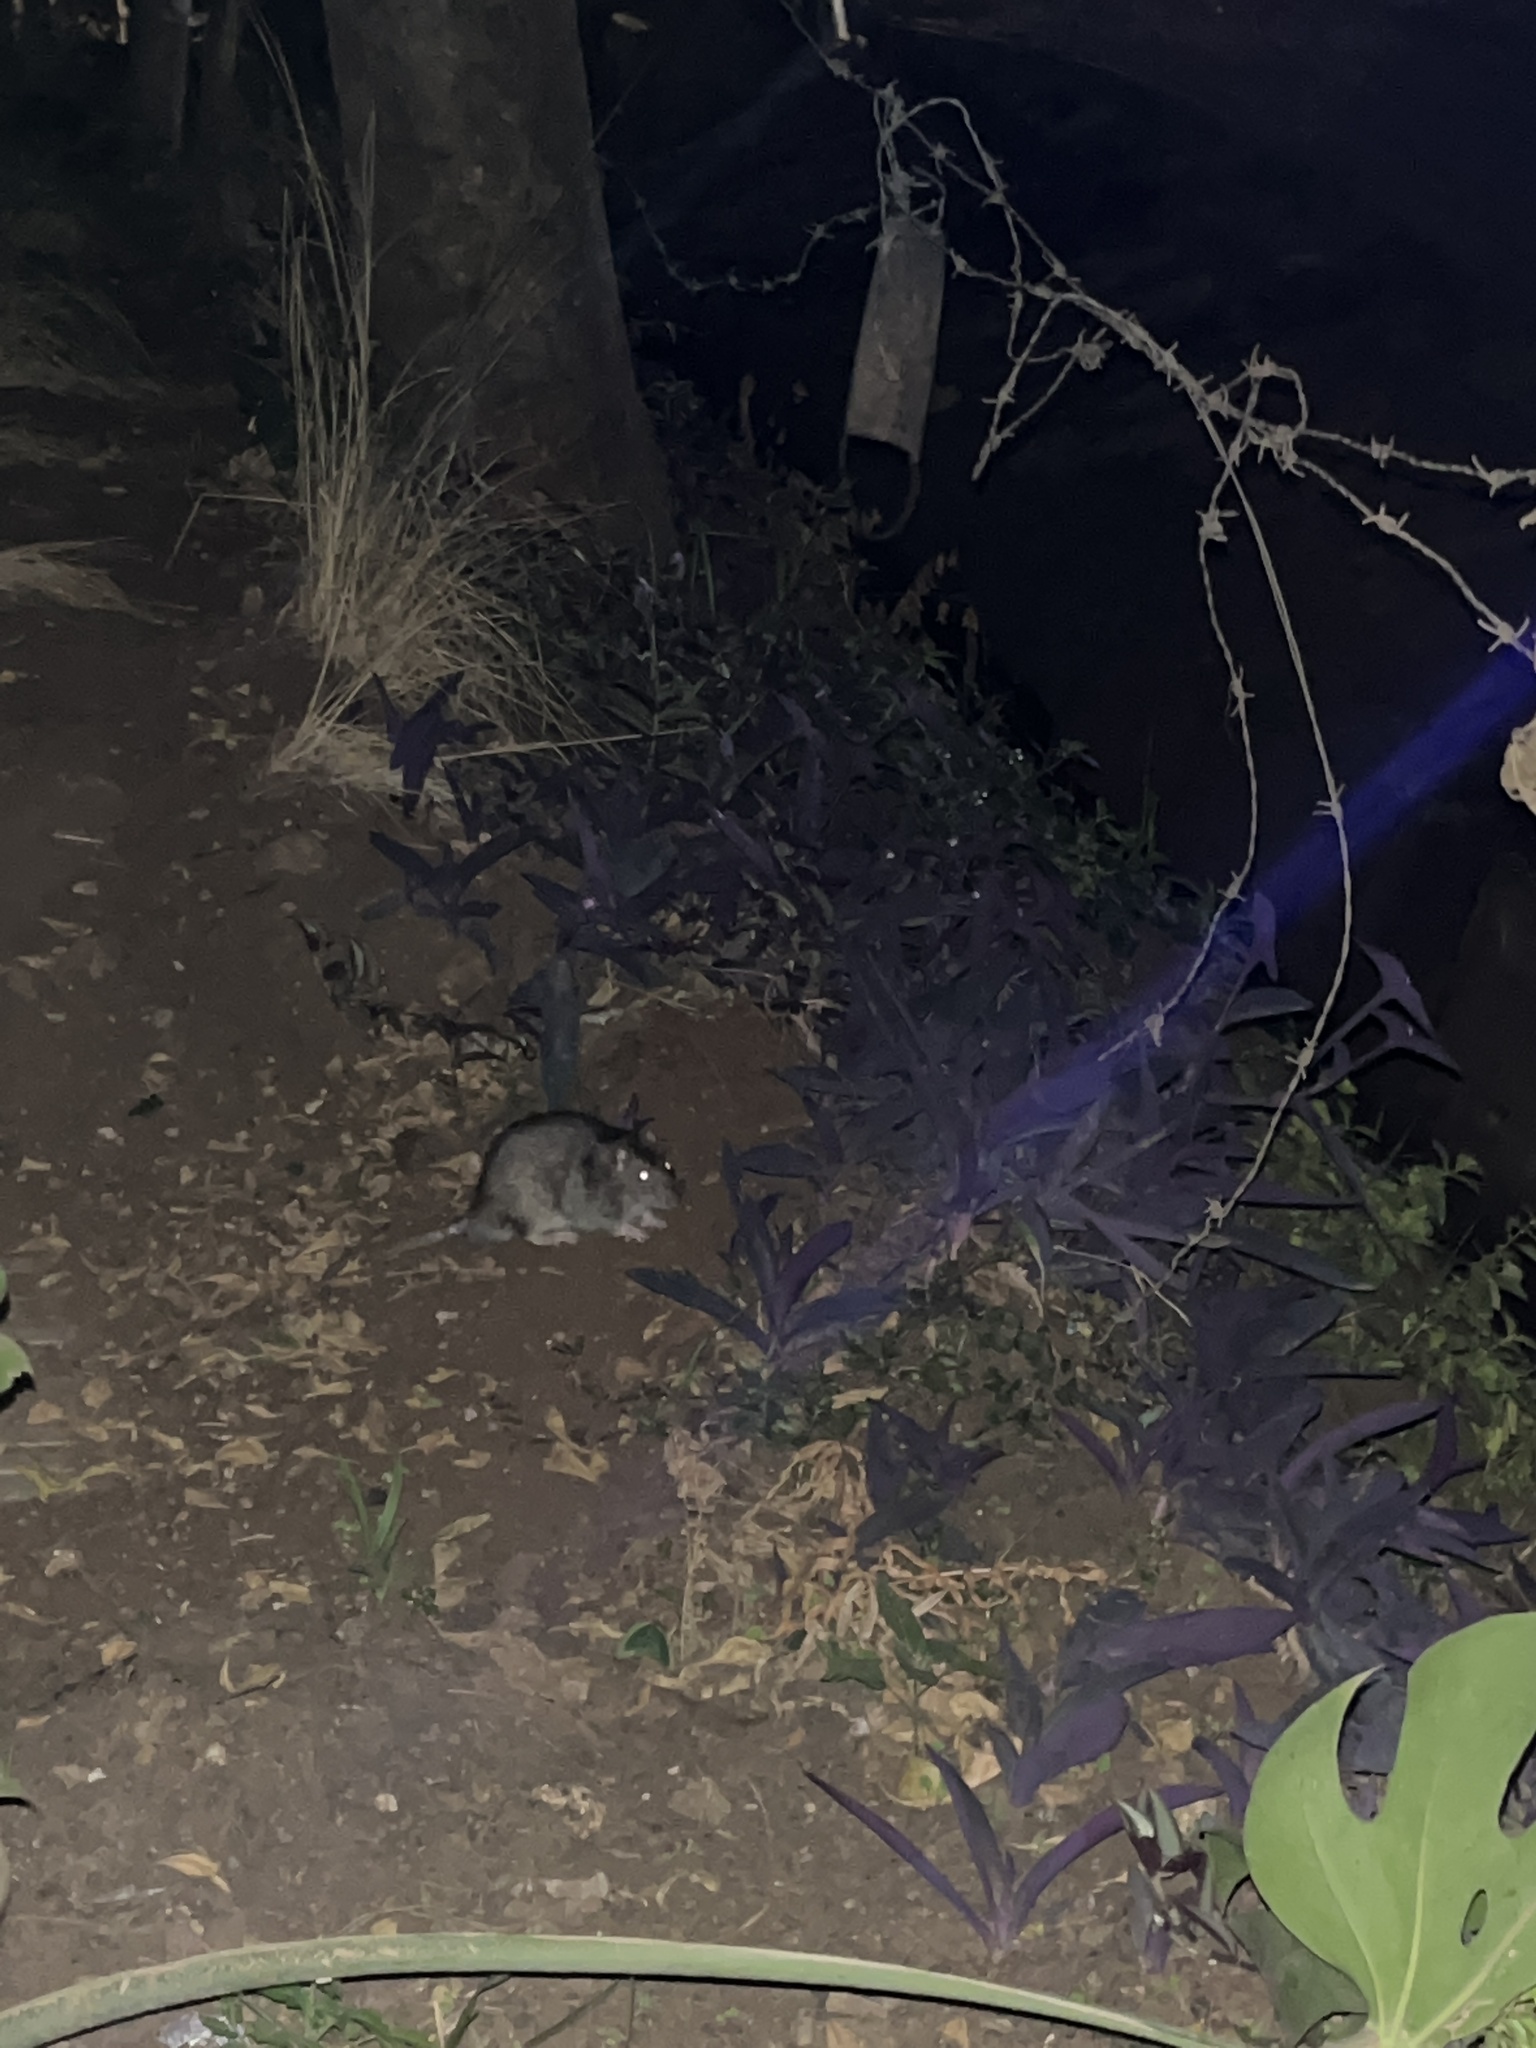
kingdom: Animalia
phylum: Chordata
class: Mammalia
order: Rodentia
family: Muridae
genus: Rattus
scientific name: Rattus
